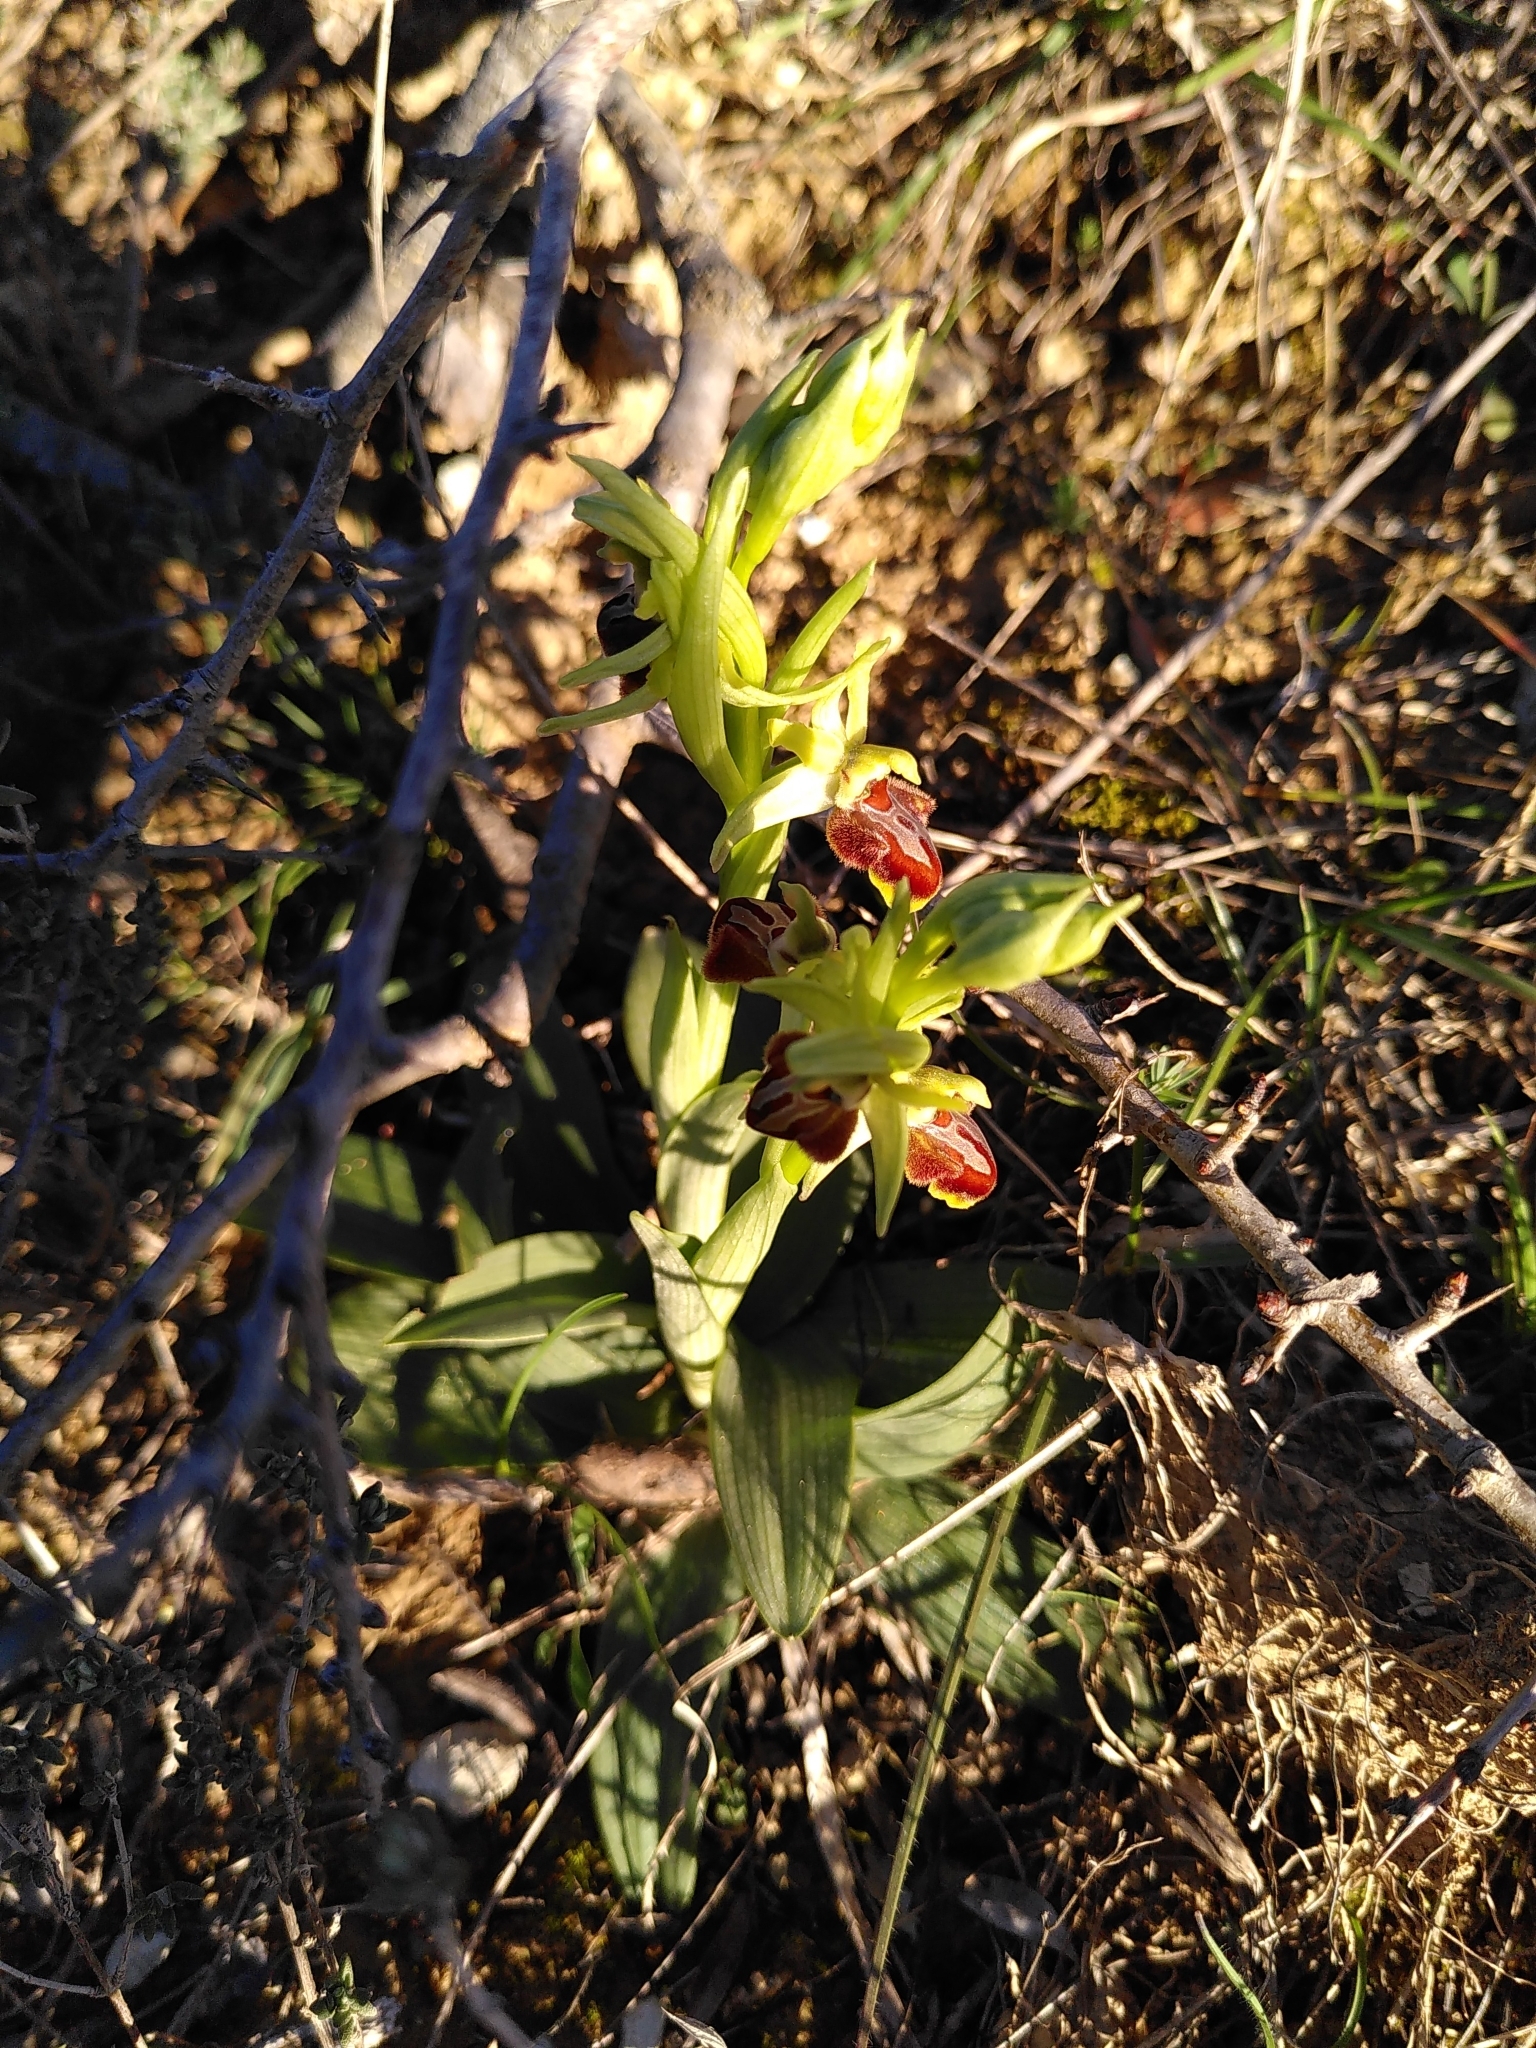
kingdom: Plantae
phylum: Tracheophyta
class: Liliopsida
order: Asparagales
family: Orchidaceae
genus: Ophrys
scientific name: Ophrys sphegodes
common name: Early spider-orchid
